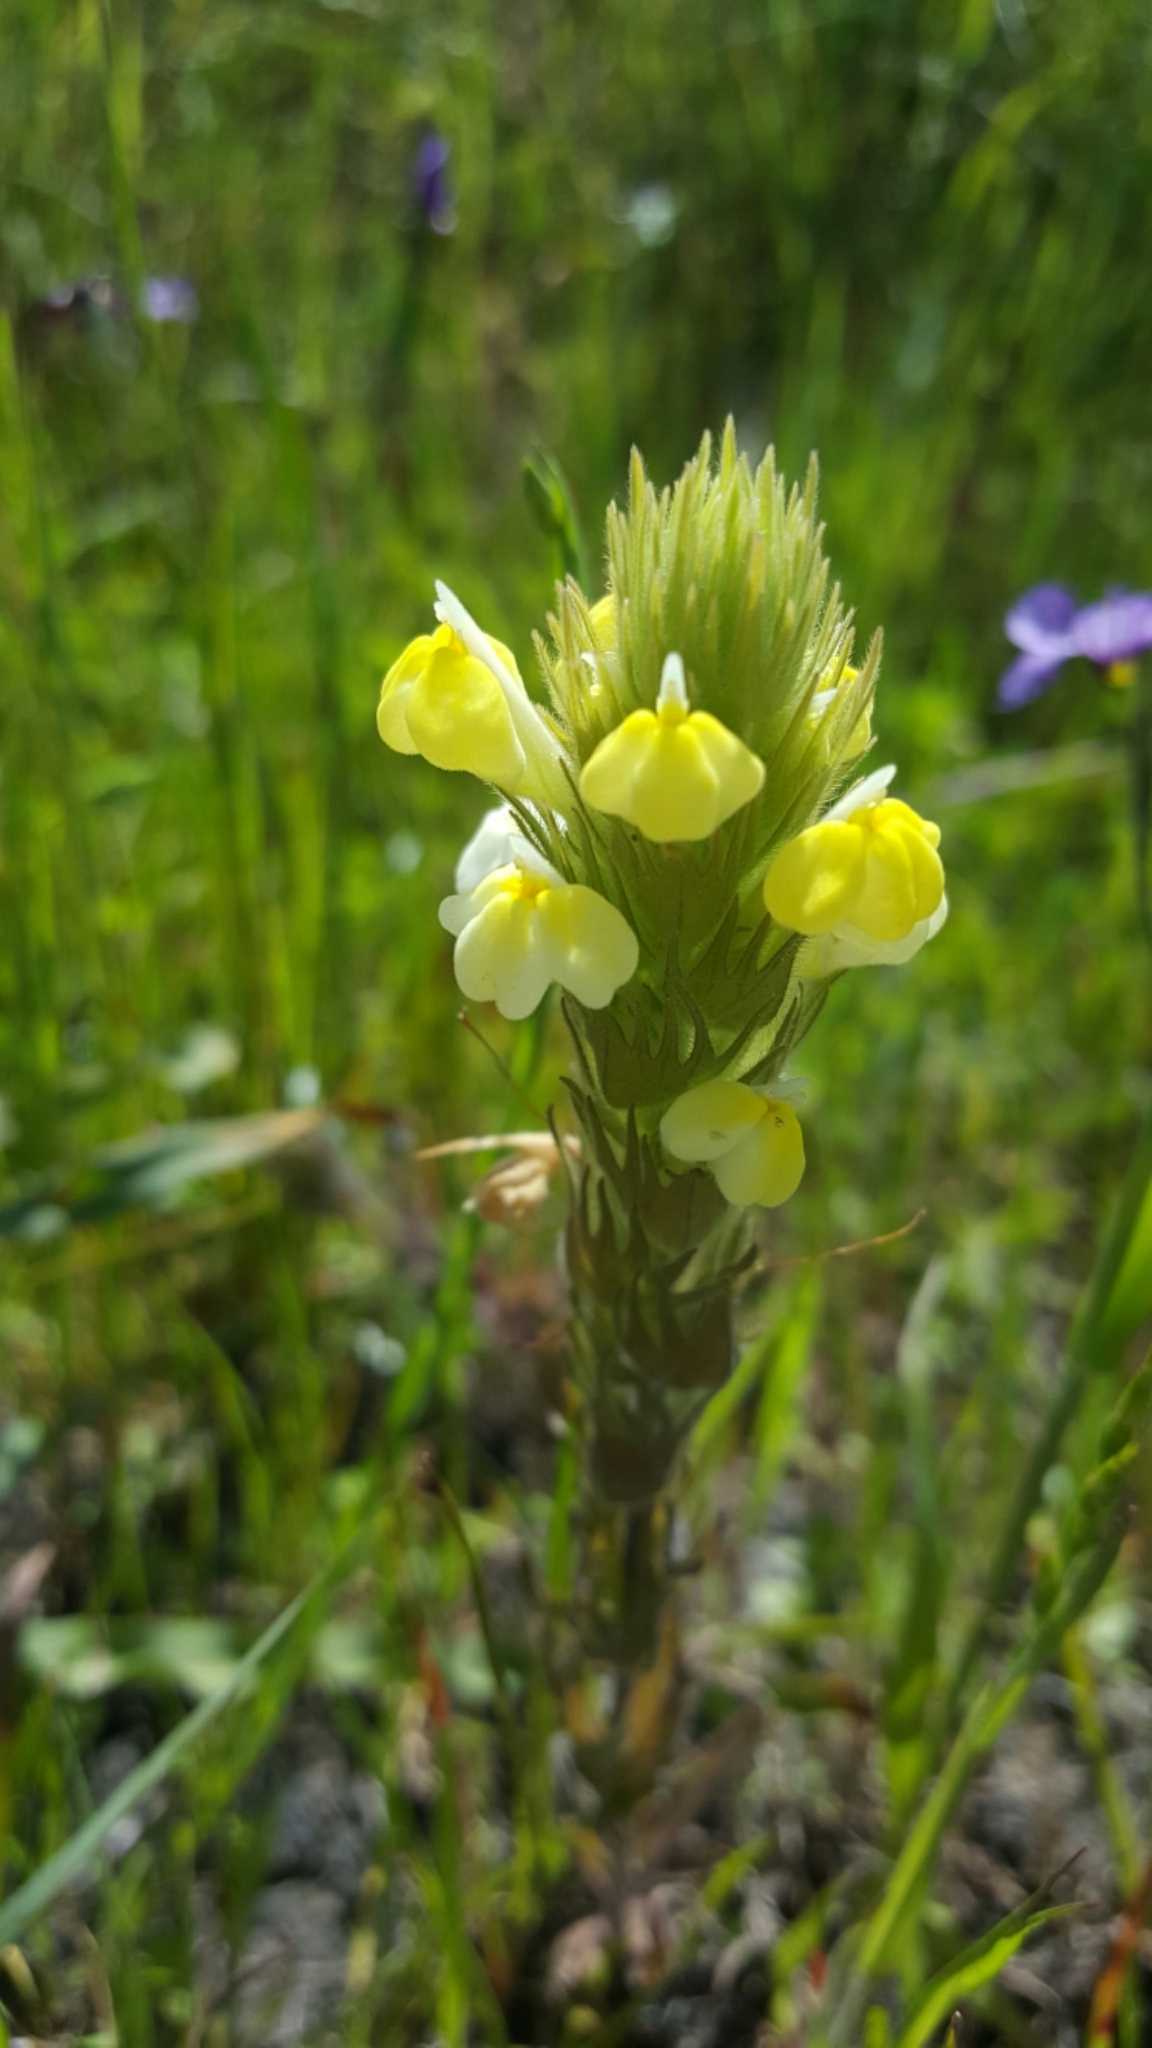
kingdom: Plantae
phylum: Tracheophyta
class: Magnoliopsida
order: Lamiales
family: Orobanchaceae
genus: Castilleja
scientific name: Castilleja rubicundula
